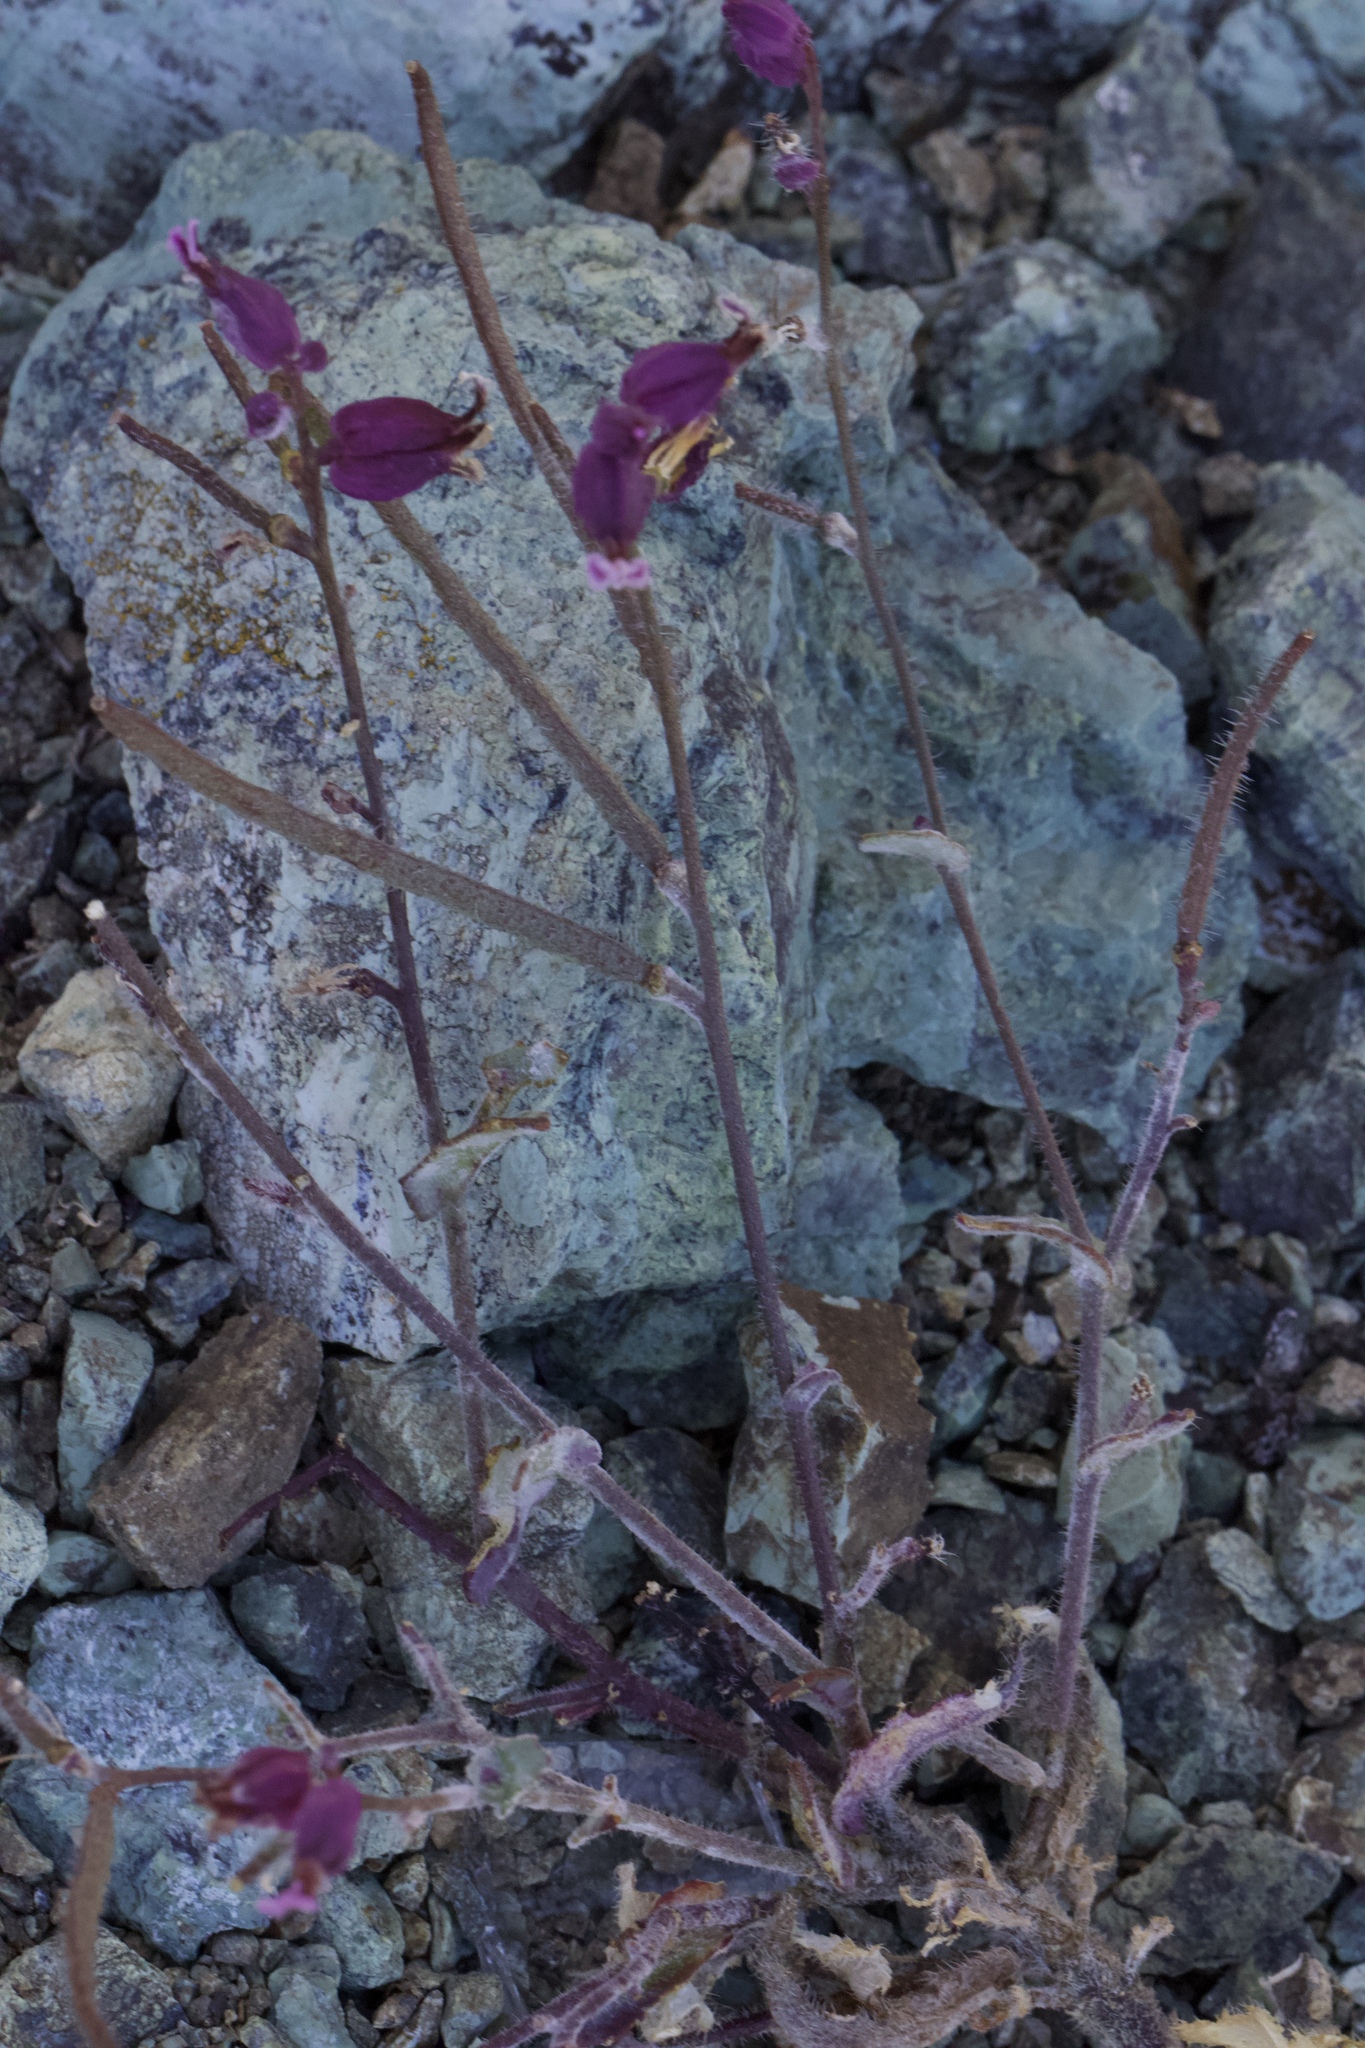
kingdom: Plantae
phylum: Tracheophyta
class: Magnoliopsida
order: Brassicales
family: Brassicaceae
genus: Streptanthus
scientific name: Streptanthus glandulosus
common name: Jewel-flower
